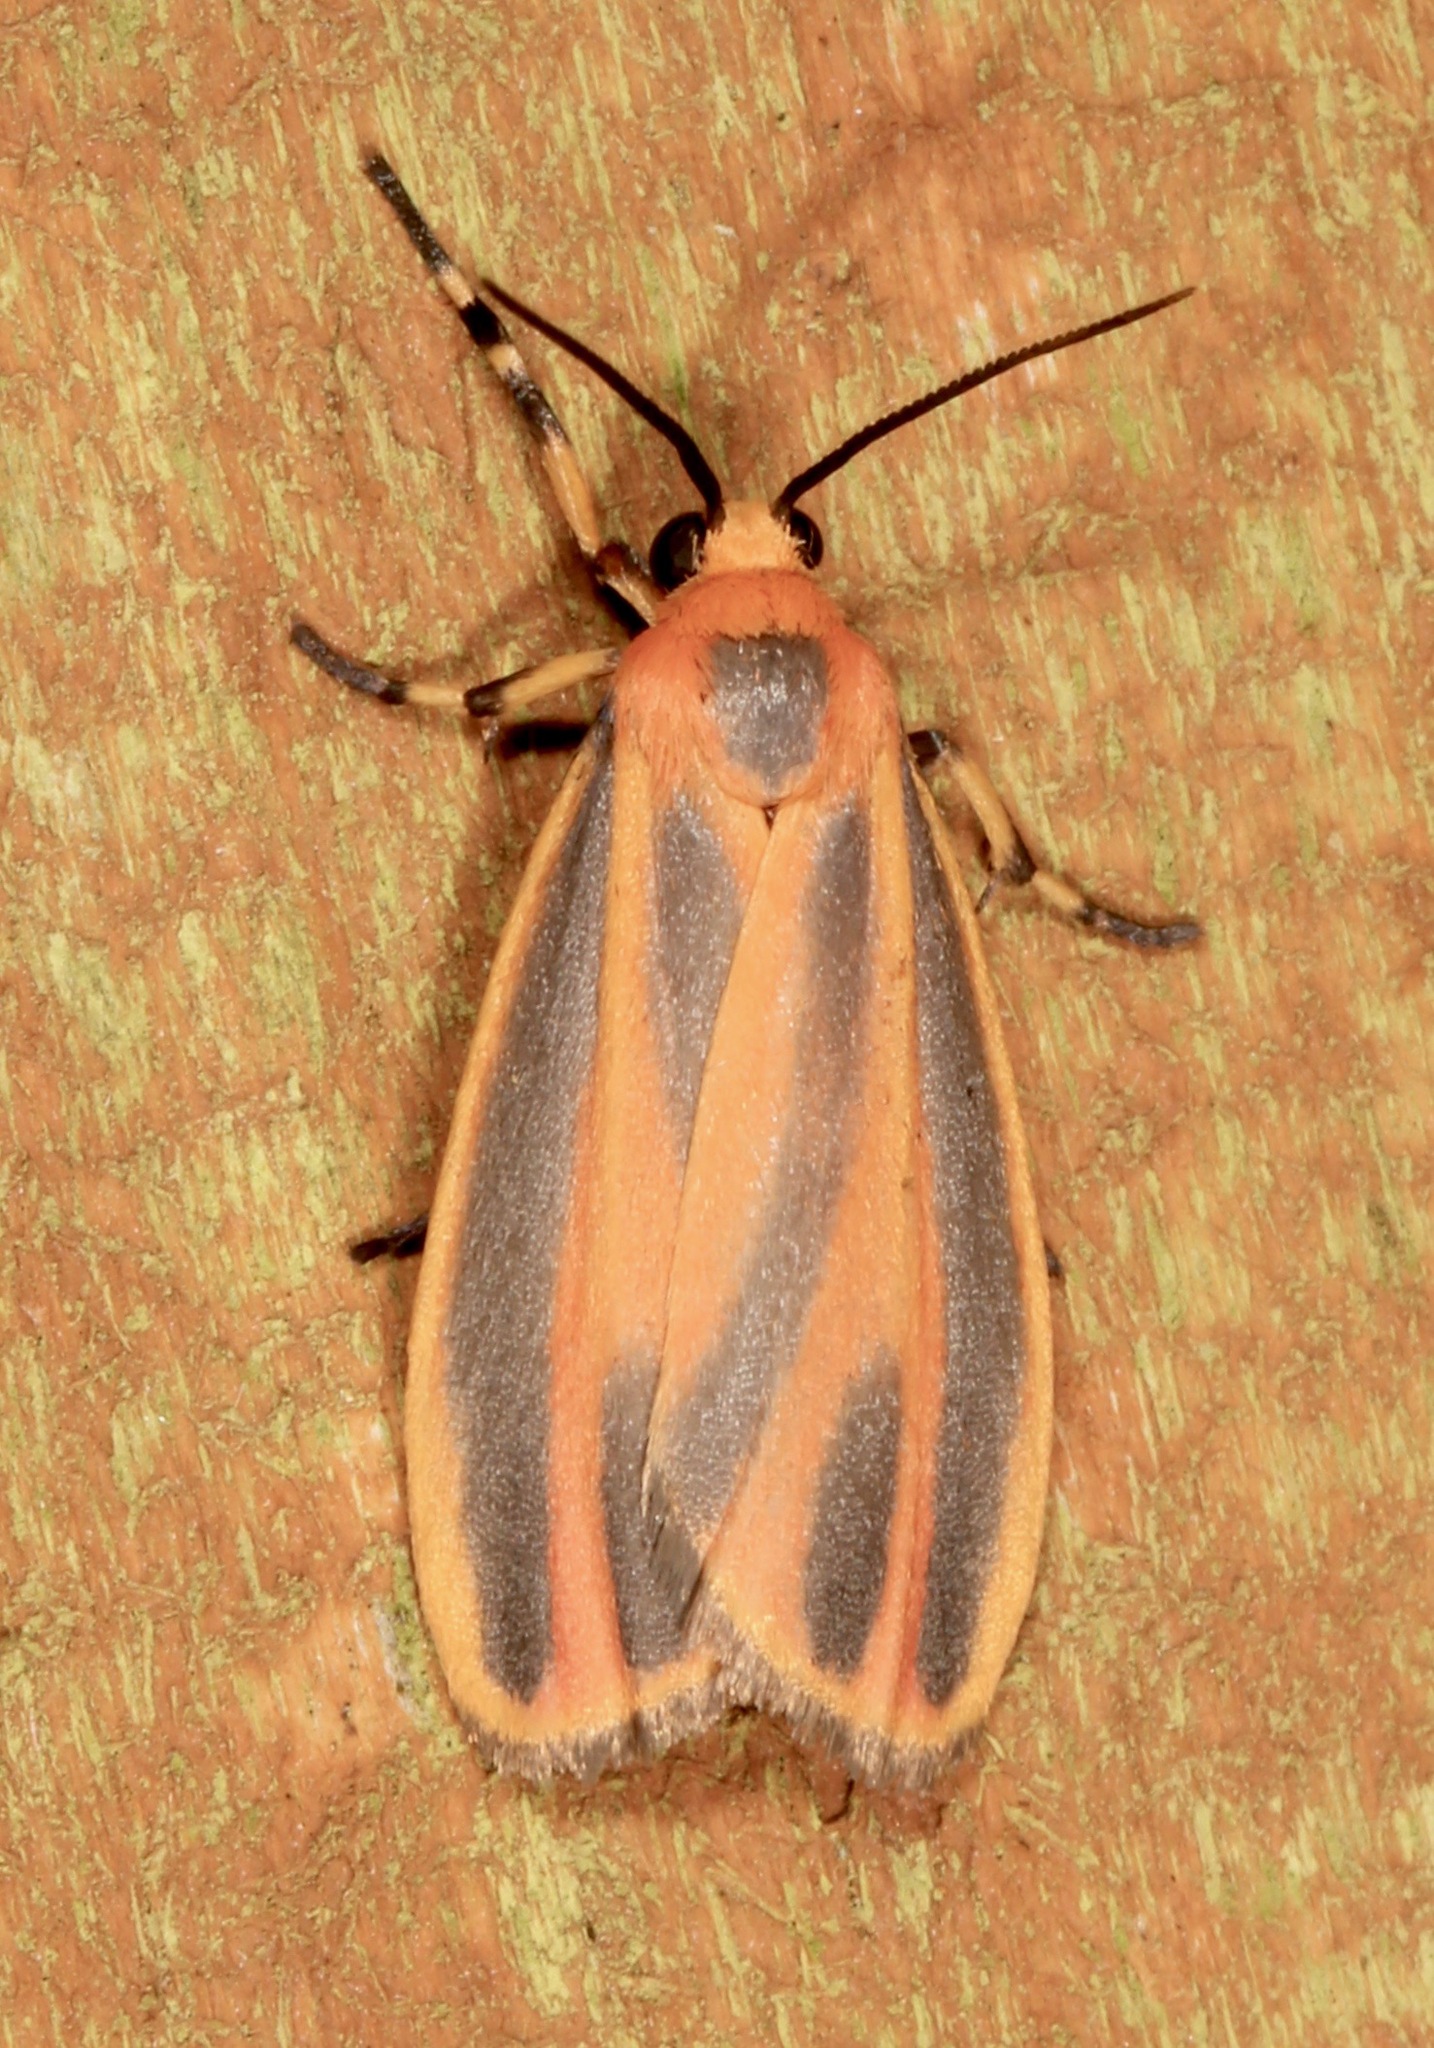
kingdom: Animalia
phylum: Arthropoda
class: Insecta
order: Lepidoptera
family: Erebidae
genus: Hypoprepia
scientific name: Hypoprepia fucosa
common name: Painted lichen moth
